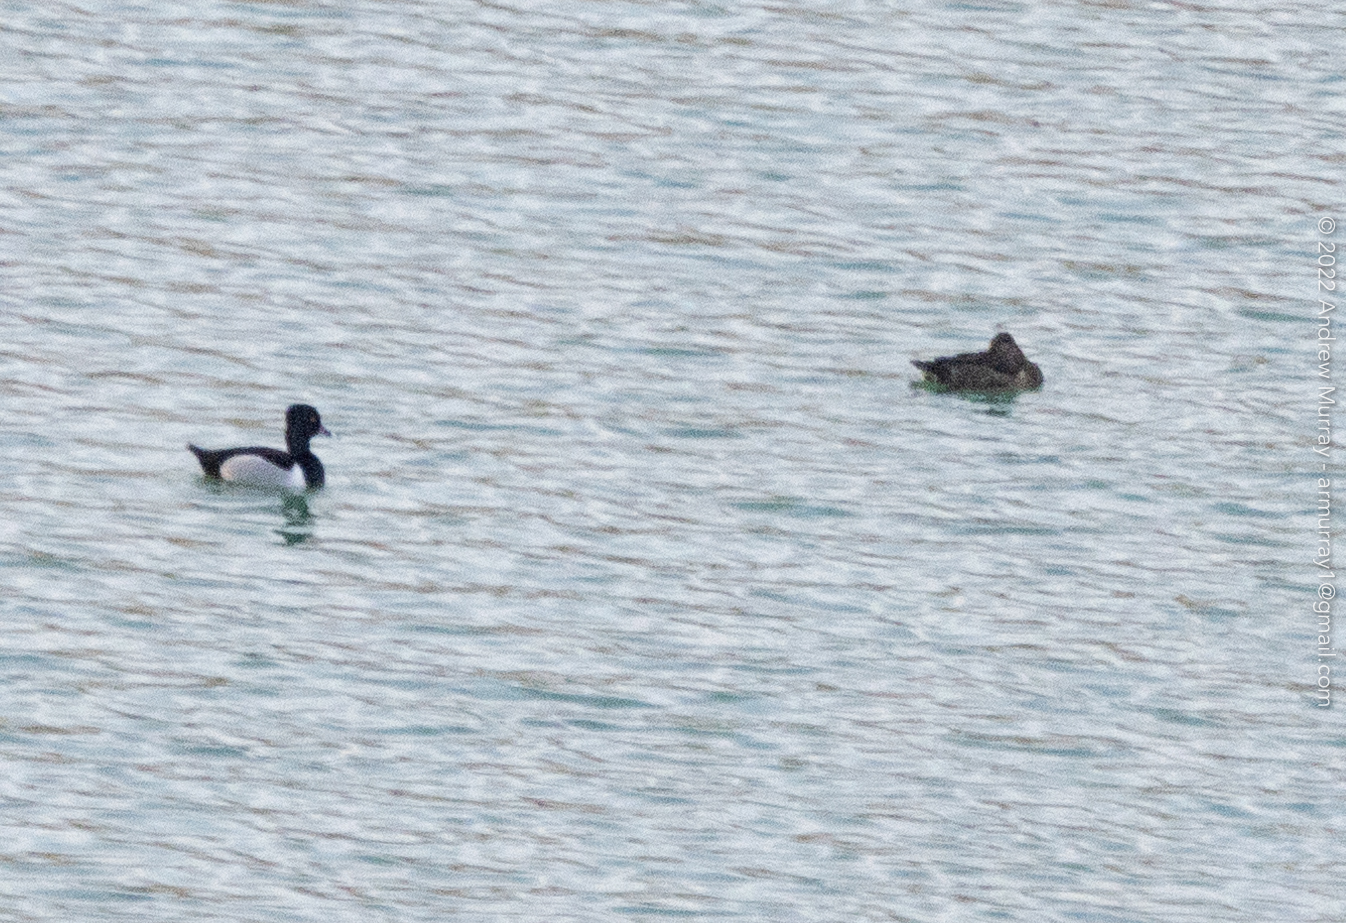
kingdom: Animalia
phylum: Chordata
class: Aves
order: Anseriformes
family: Anatidae
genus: Aythya
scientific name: Aythya collaris
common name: Ring-necked duck
